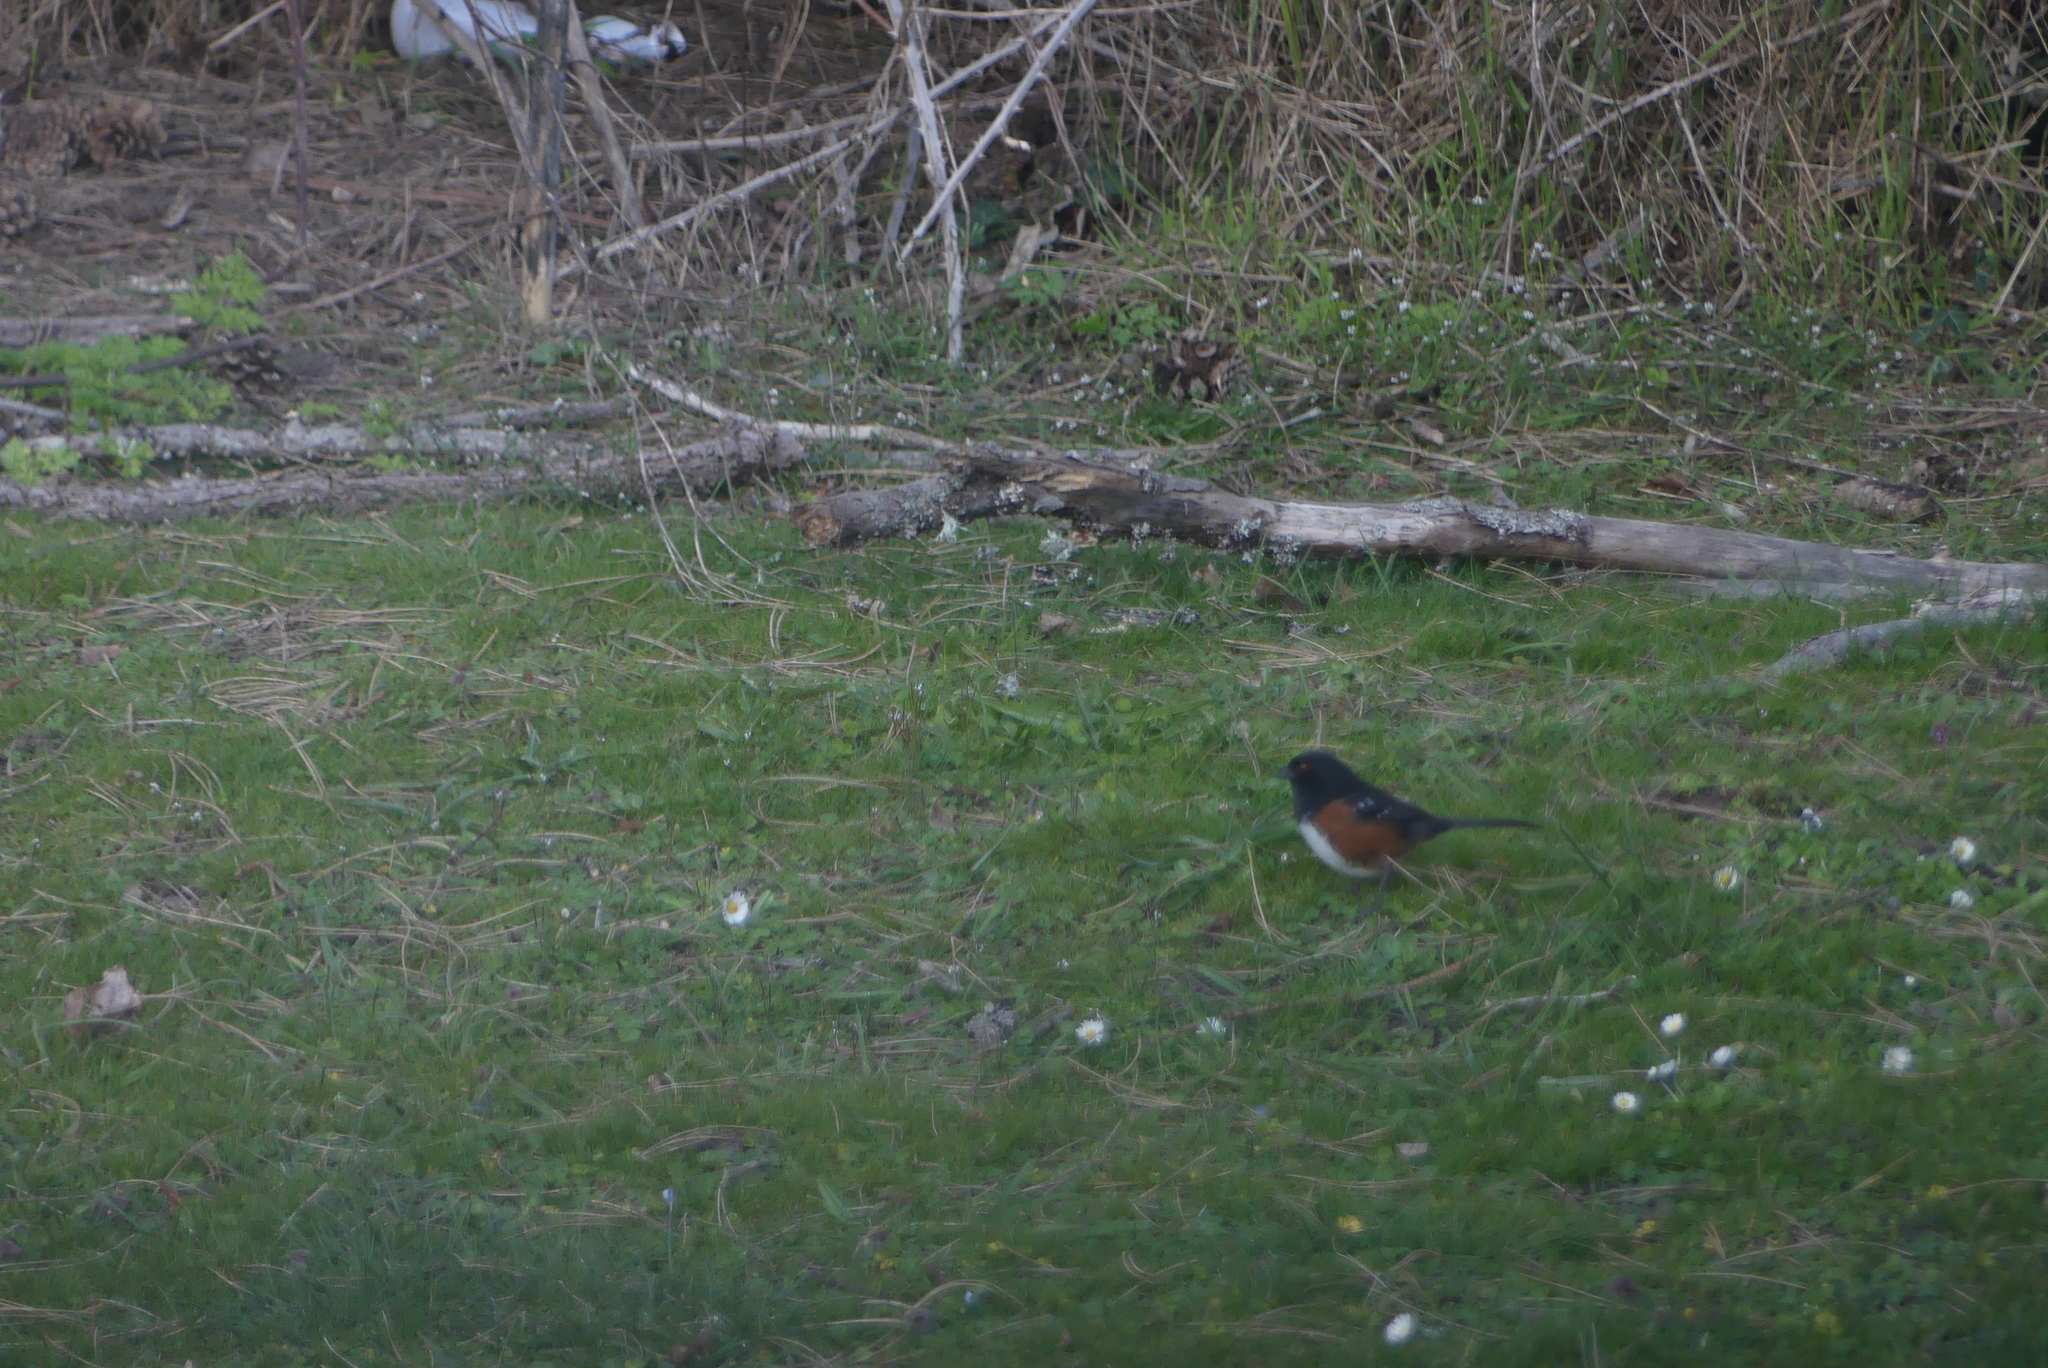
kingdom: Animalia
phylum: Chordata
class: Aves
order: Passeriformes
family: Passerellidae
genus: Pipilo
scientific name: Pipilo maculatus
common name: Spotted towhee
